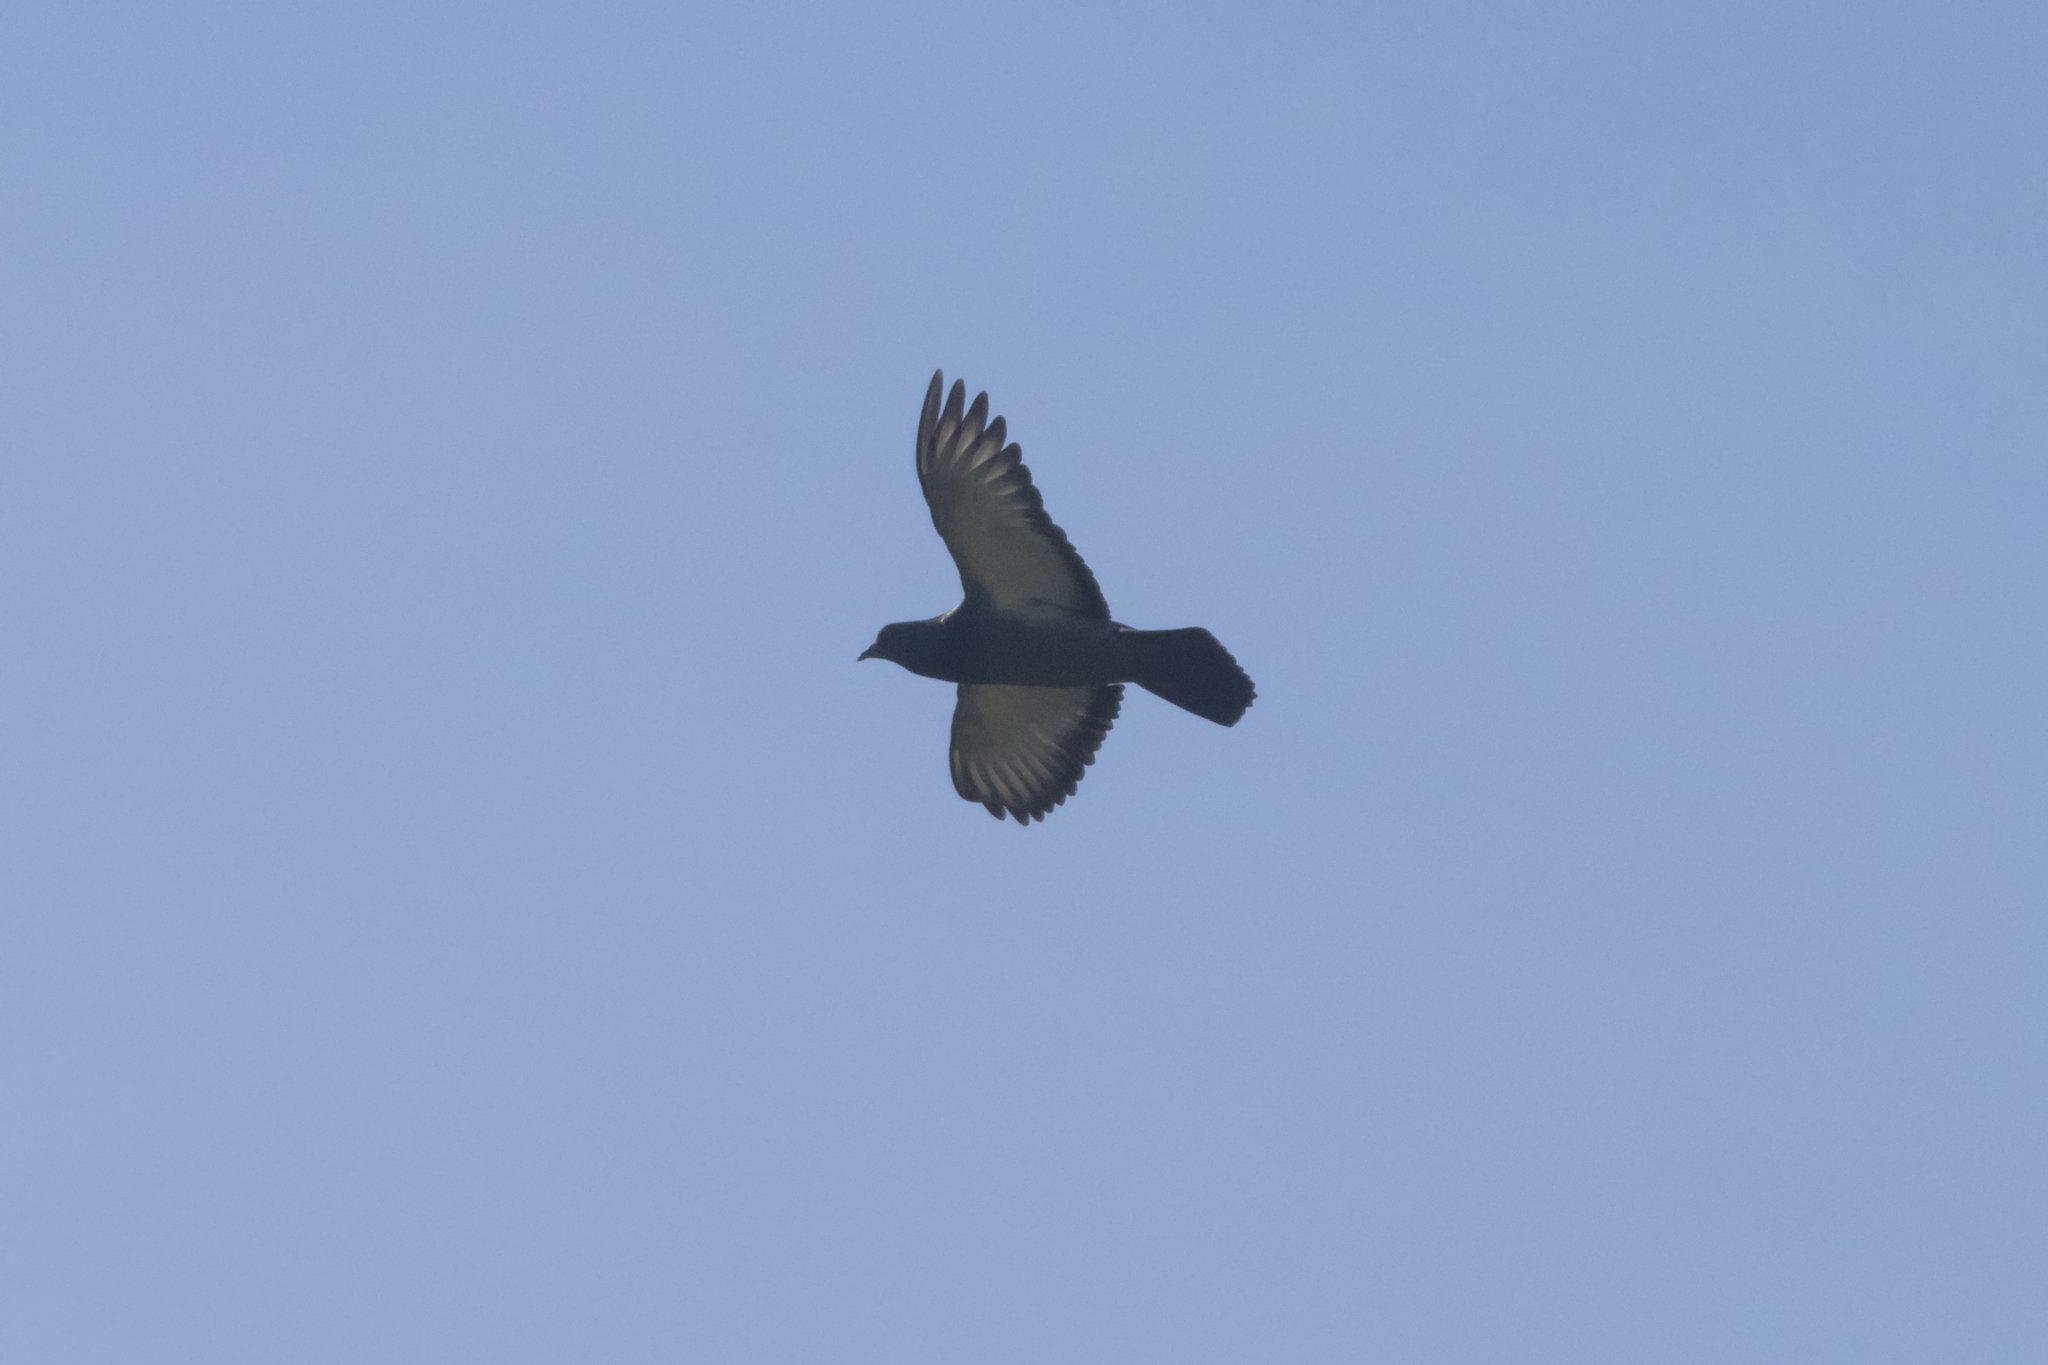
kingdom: Animalia
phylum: Chordata
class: Aves
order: Columbiformes
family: Columbidae
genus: Columba
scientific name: Columba livia
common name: Rock pigeon
